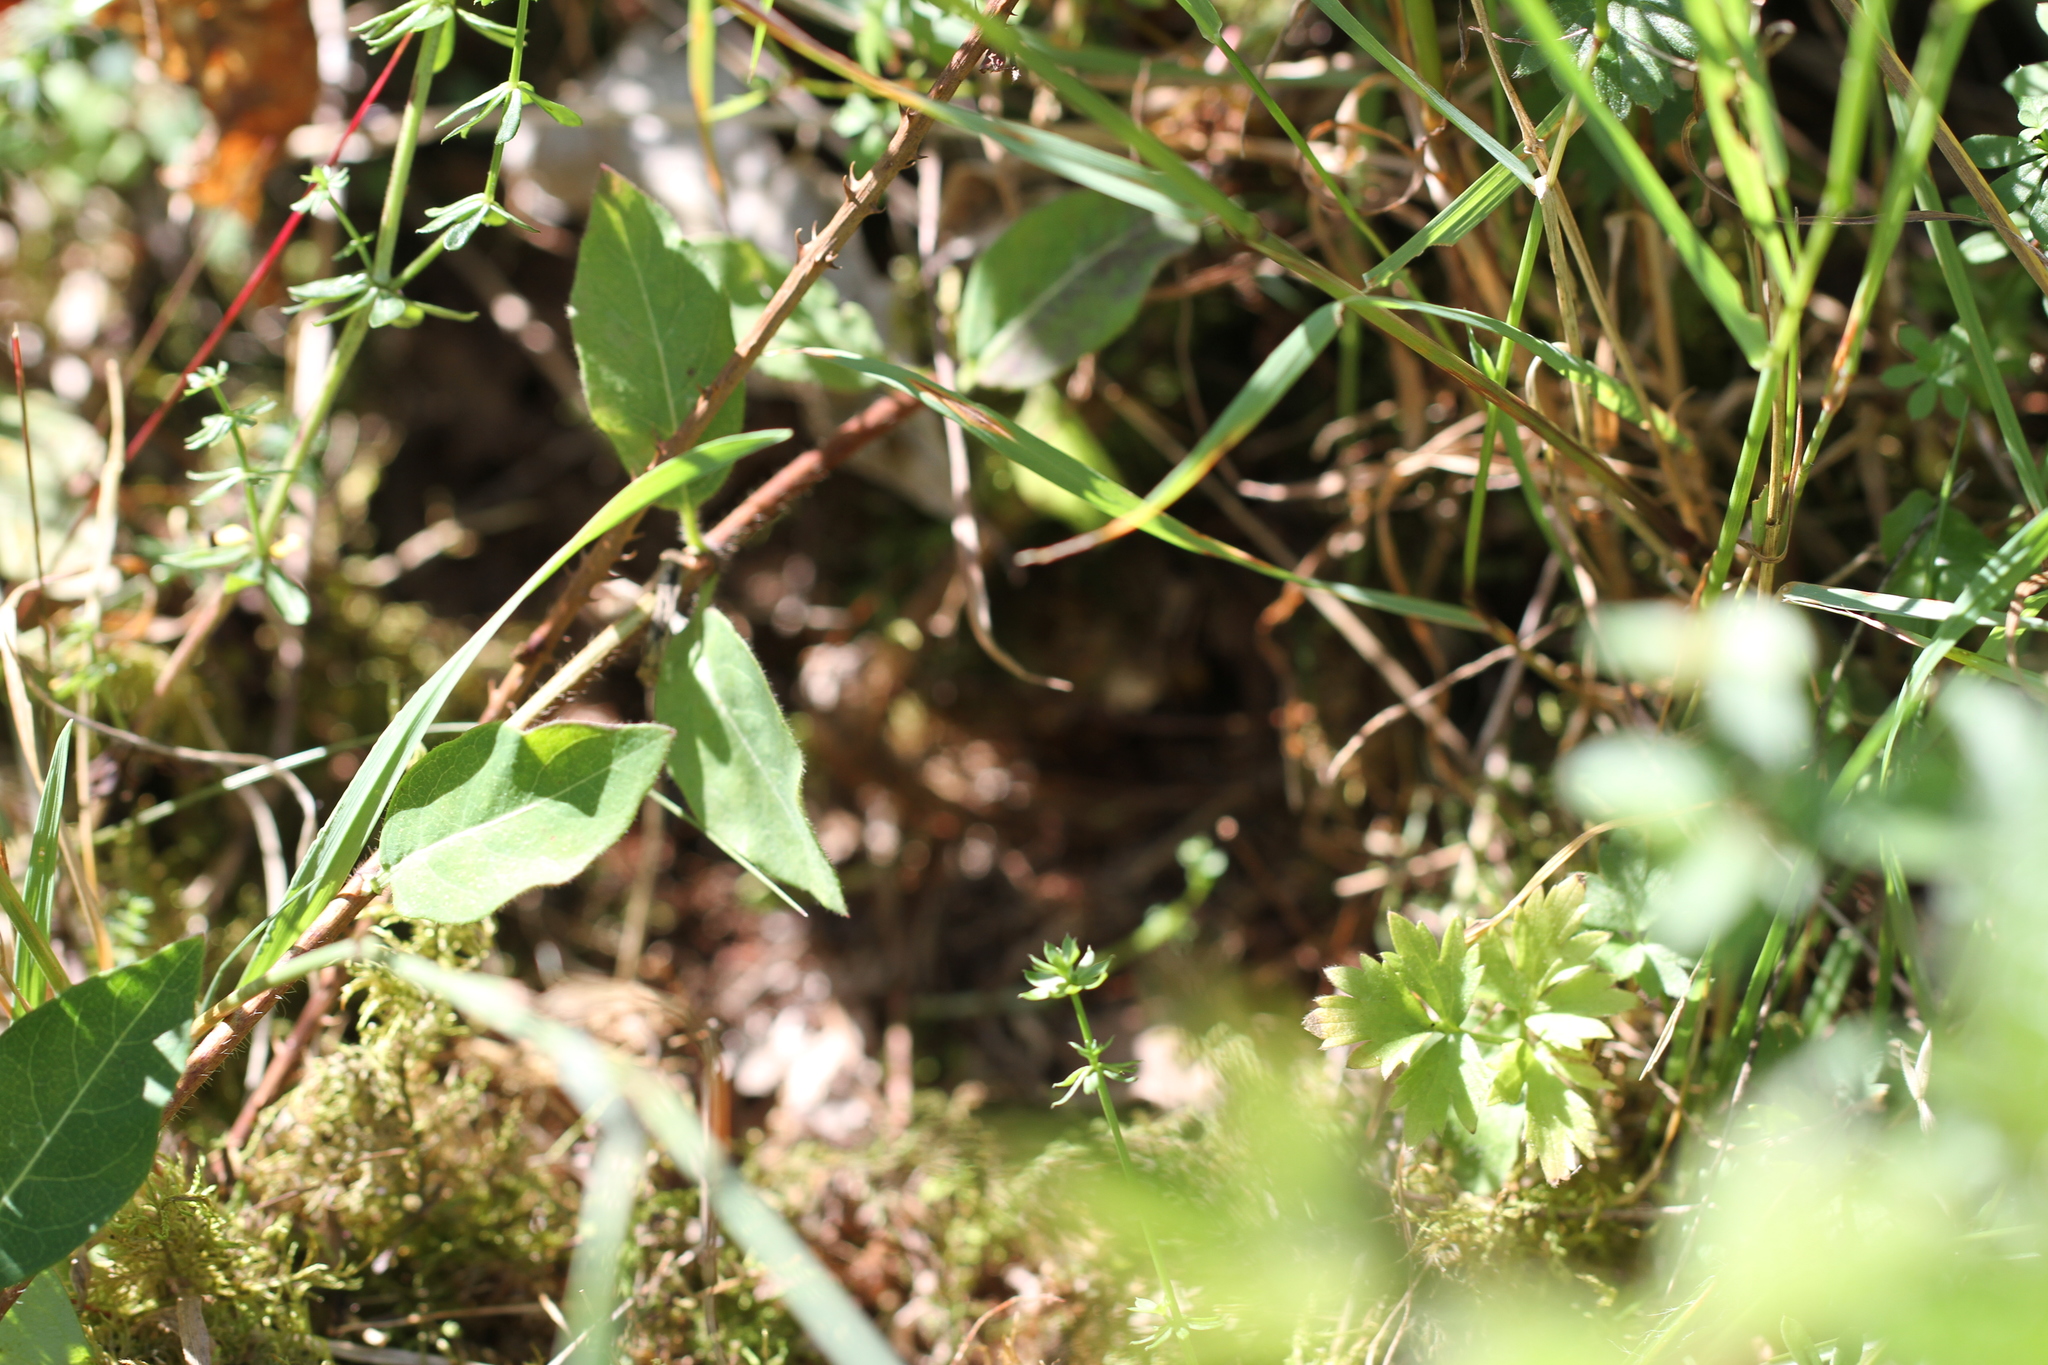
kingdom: Animalia
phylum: Arthropoda
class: Insecta
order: Hymenoptera
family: Vespidae
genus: Vespa
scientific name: Vespa crabro
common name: Hornet
